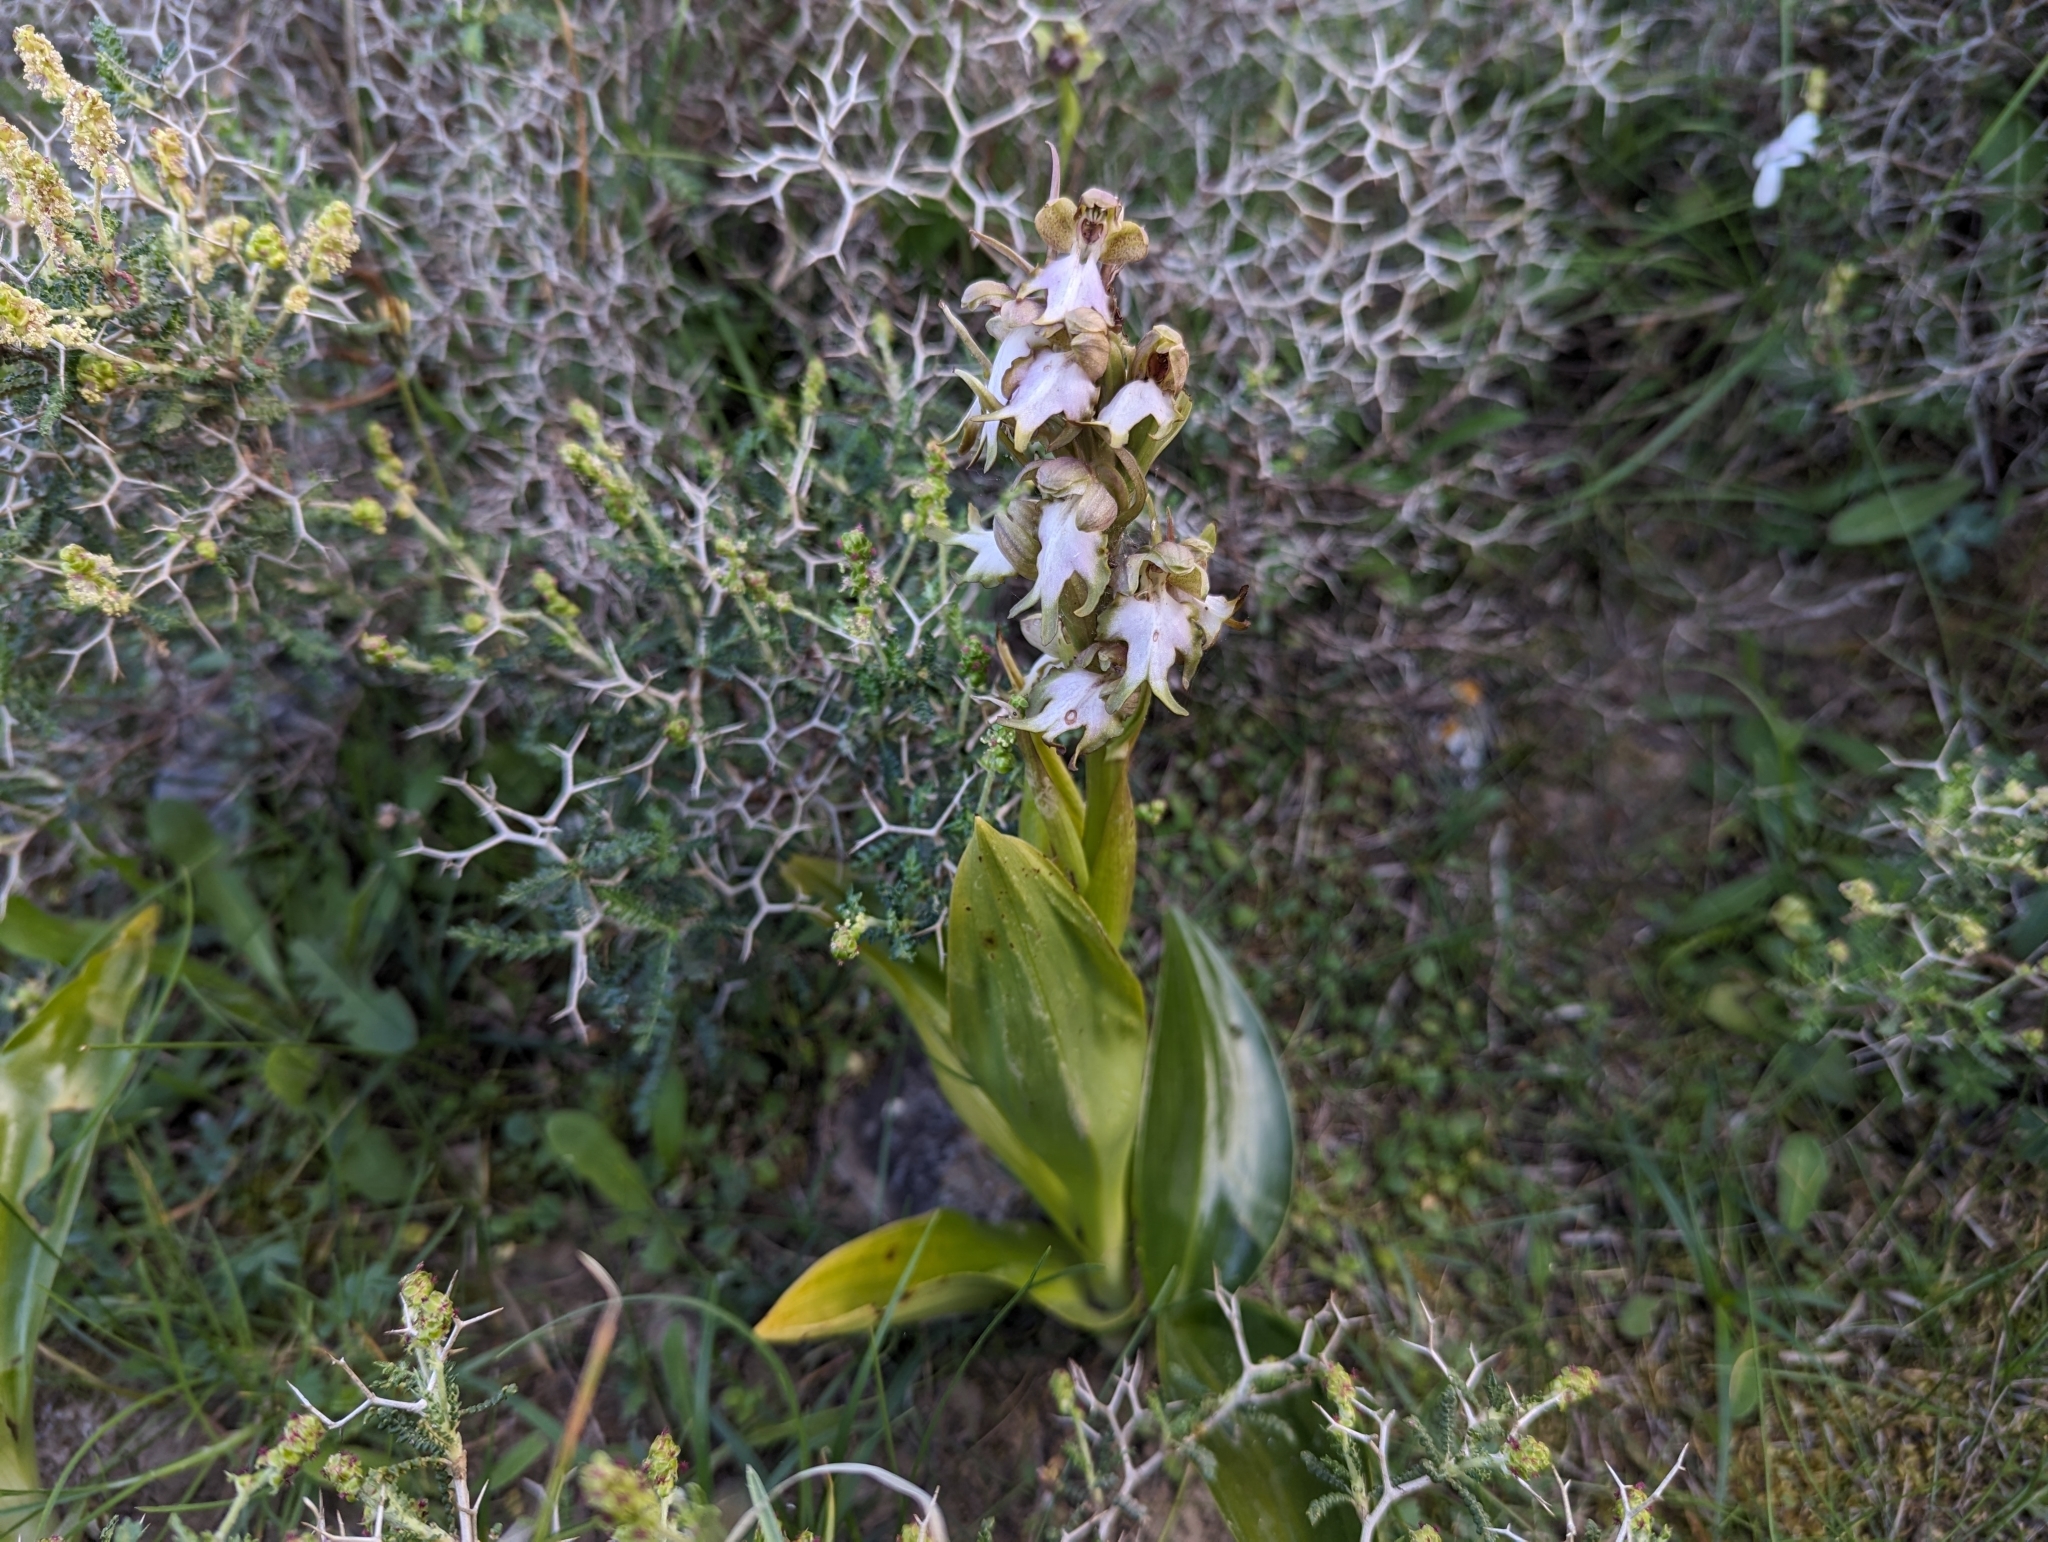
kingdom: Plantae
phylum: Tracheophyta
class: Liliopsida
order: Asparagales
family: Orchidaceae
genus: Himantoglossum
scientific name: Himantoglossum robertianum
